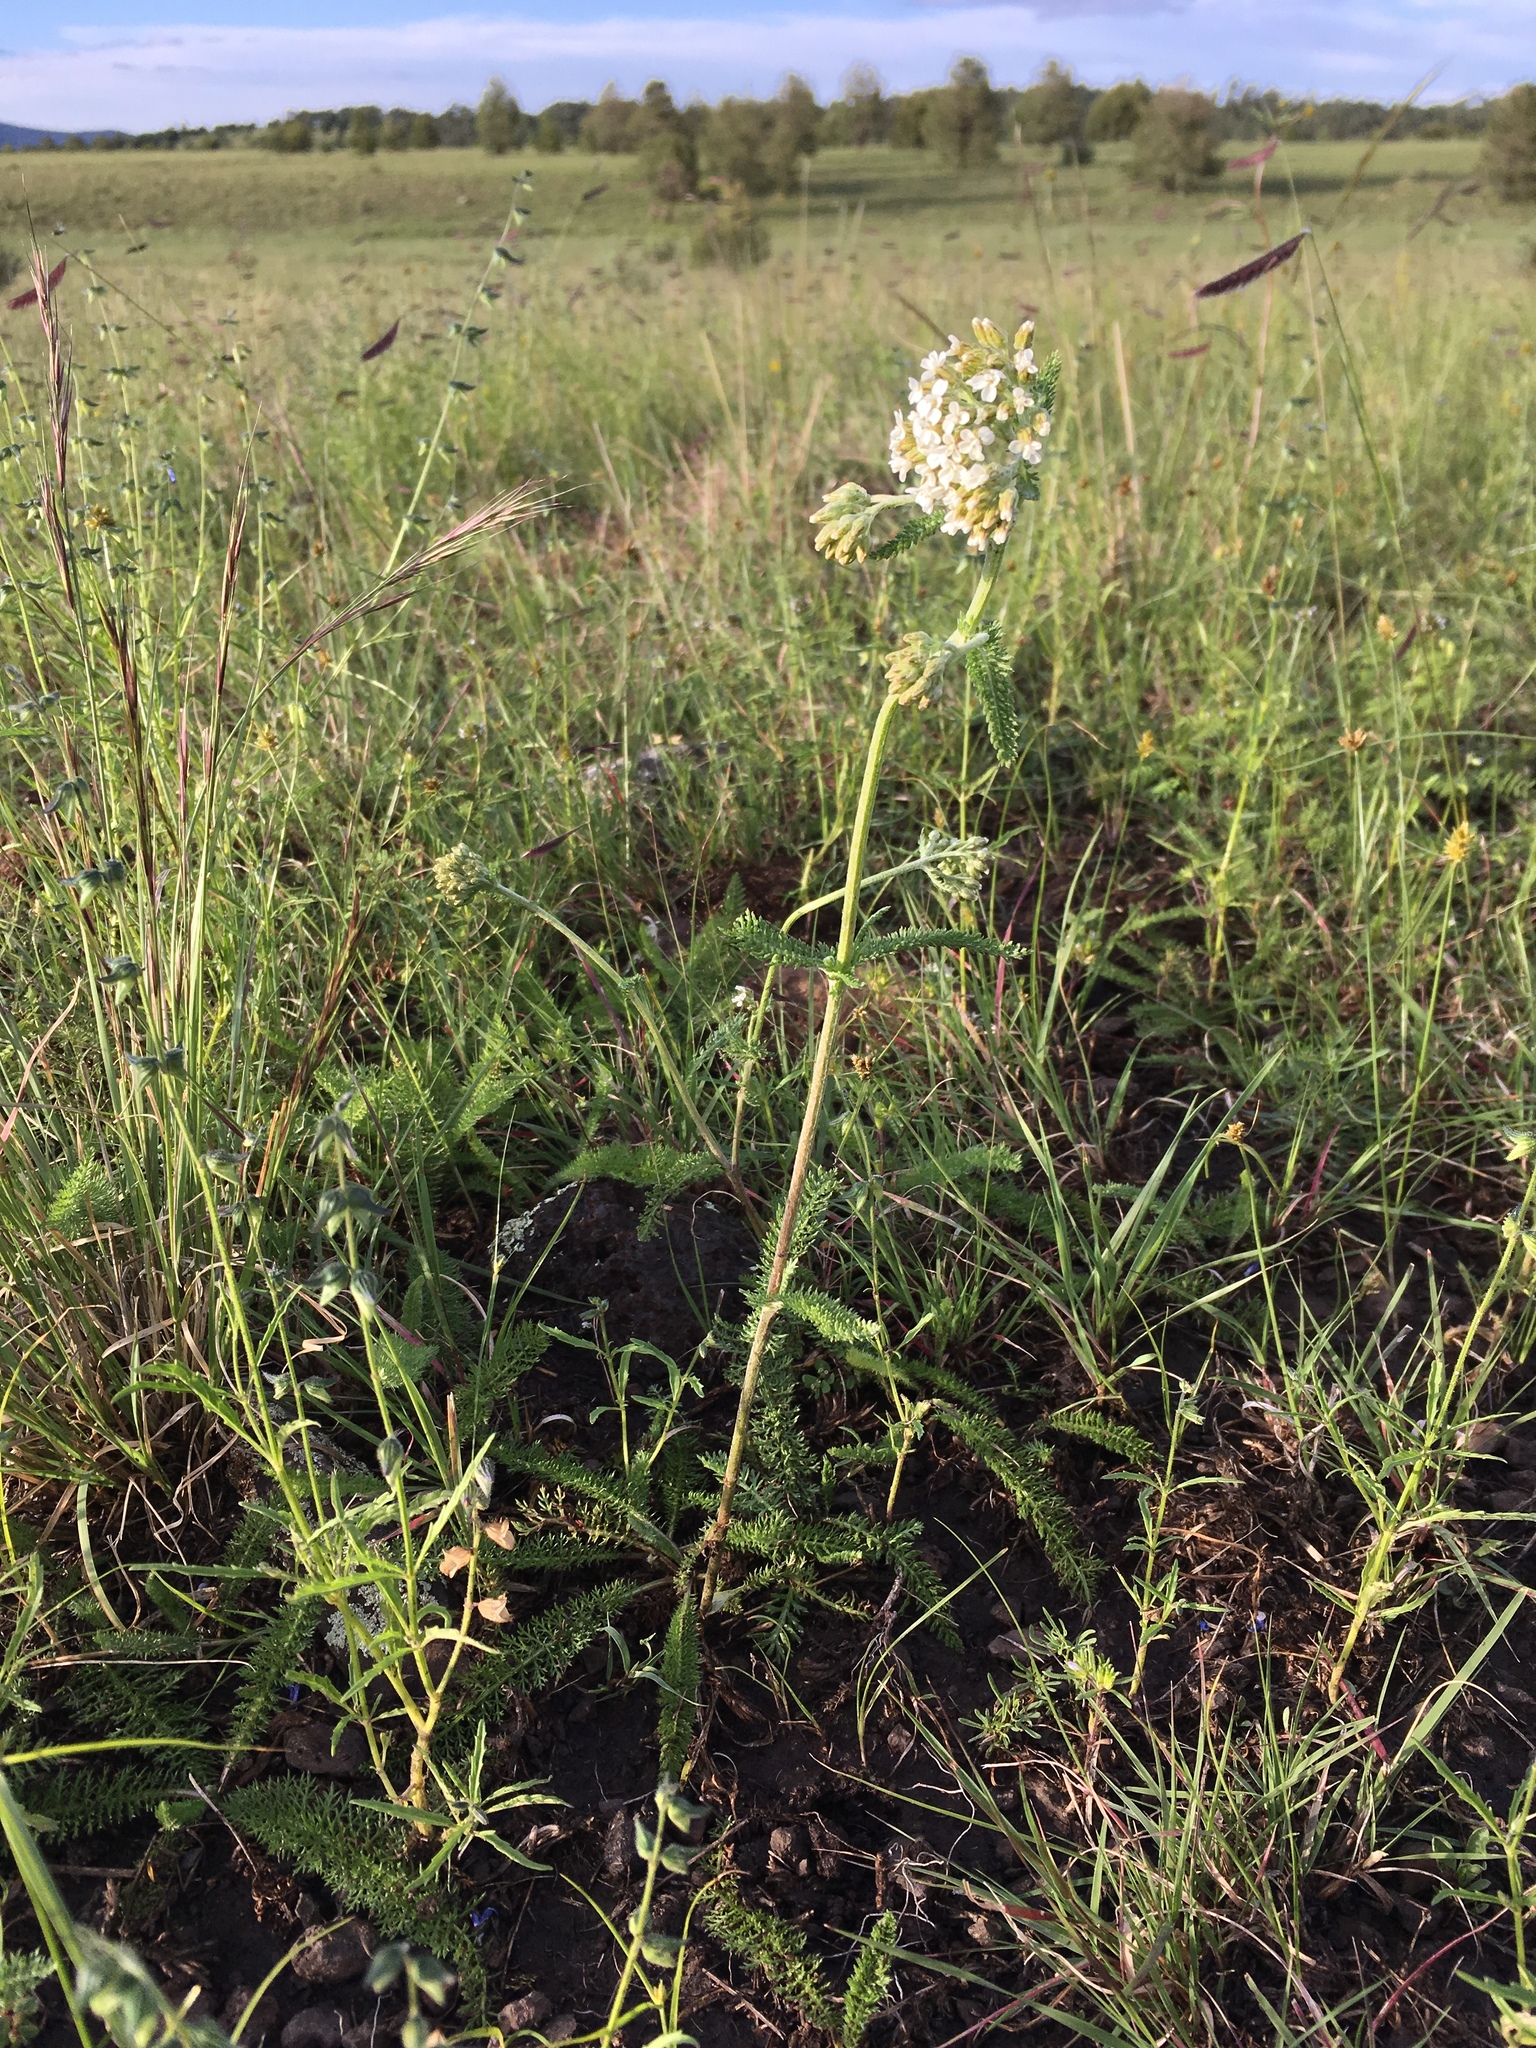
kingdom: Plantae
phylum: Tracheophyta
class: Magnoliopsida
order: Asterales
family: Asteraceae
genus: Achillea
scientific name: Achillea millefolium
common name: Yarrow
